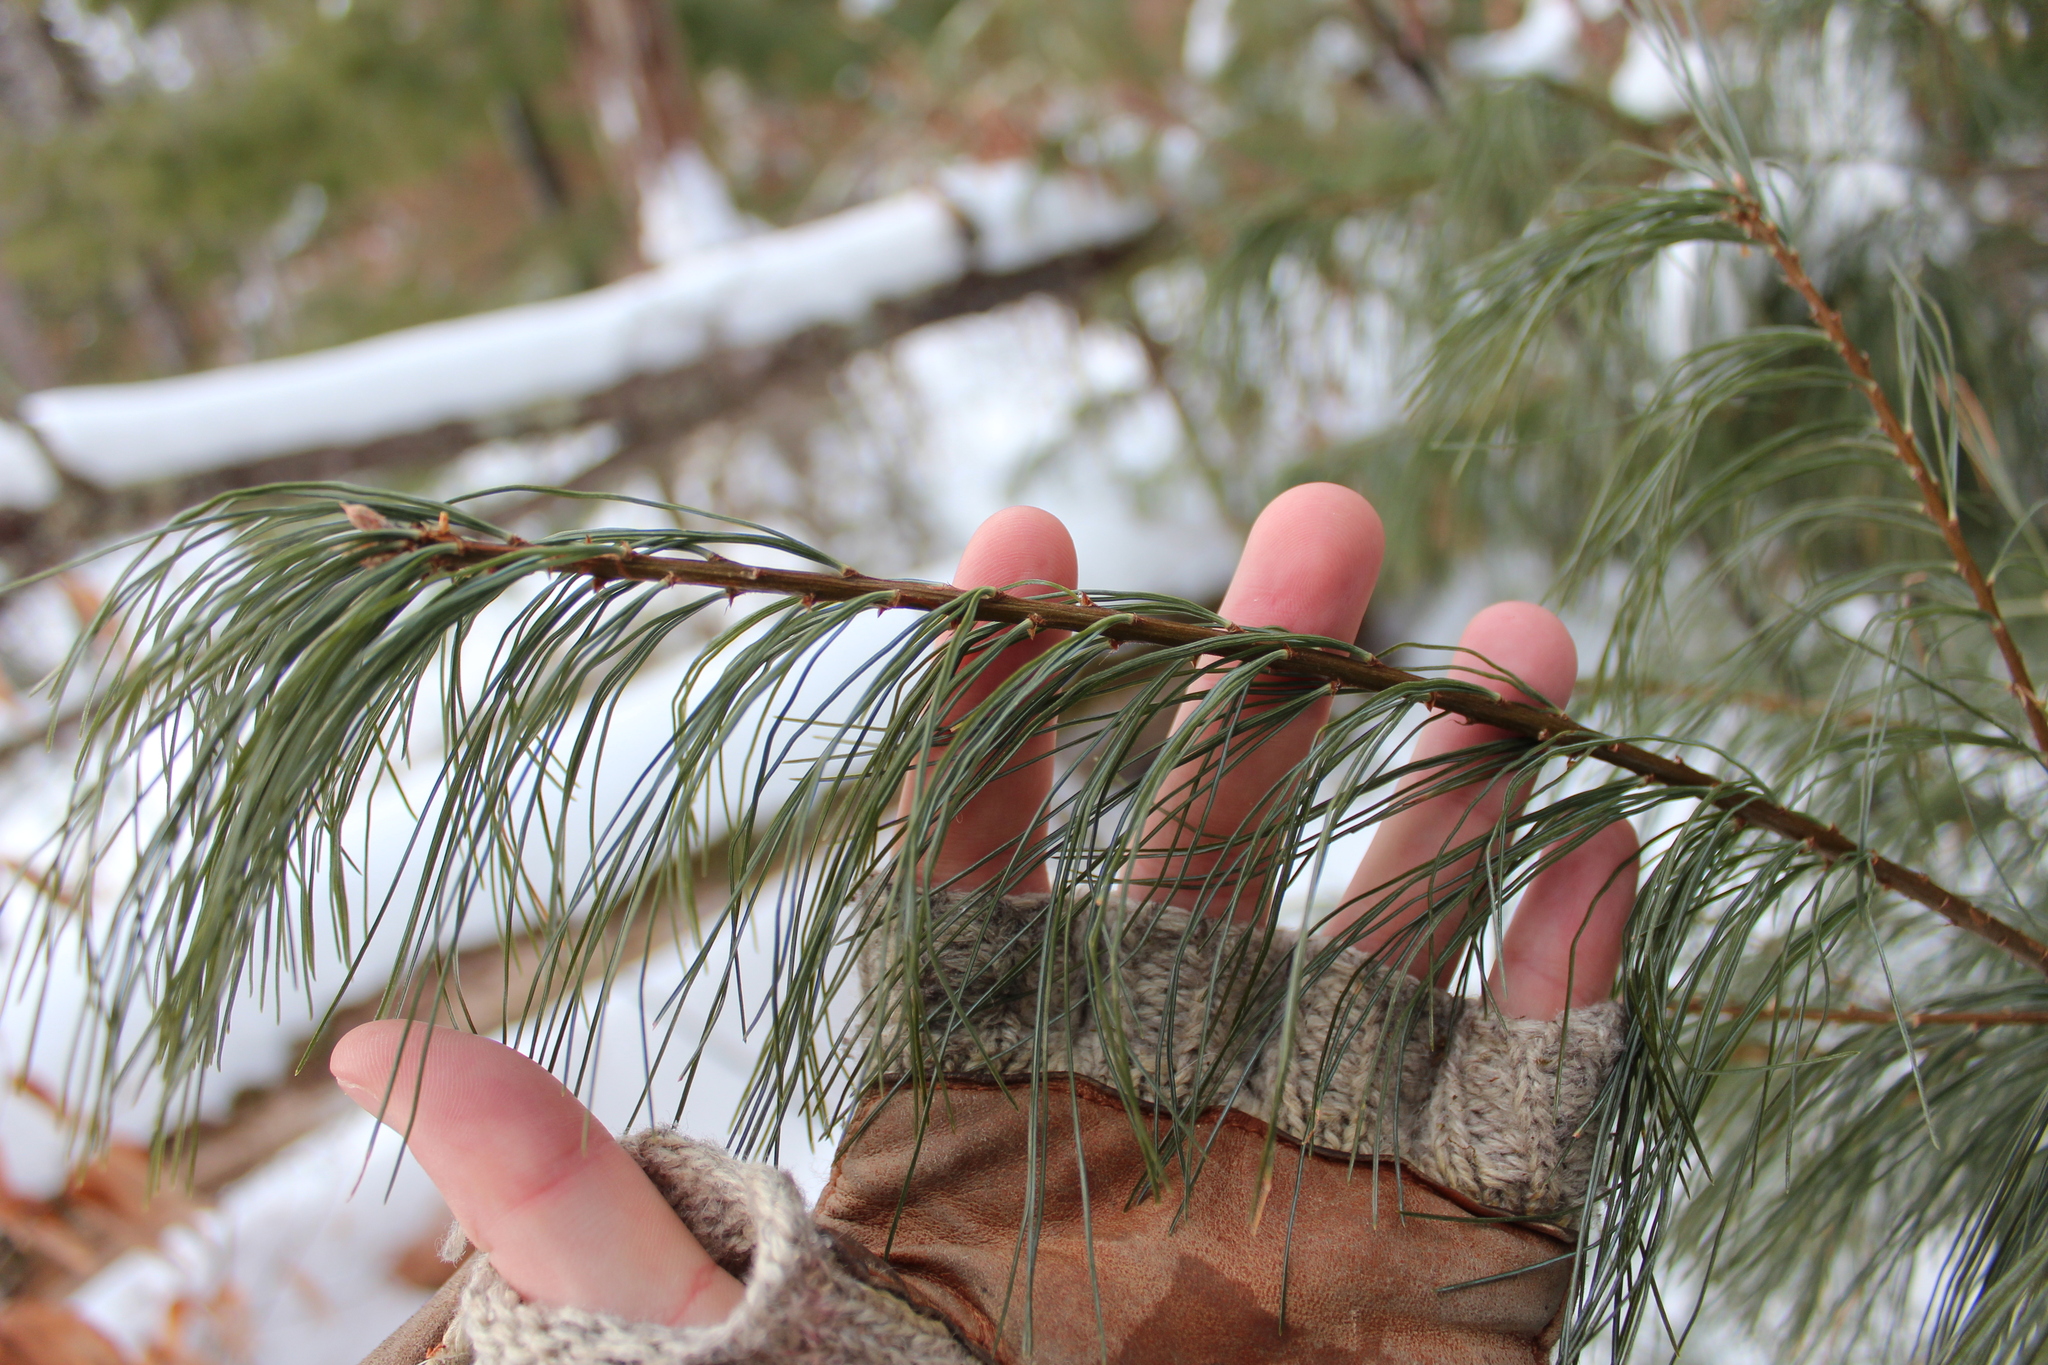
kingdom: Plantae
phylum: Tracheophyta
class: Pinopsida
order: Pinales
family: Pinaceae
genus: Pinus
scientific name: Pinus strobus
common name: Weymouth pine
